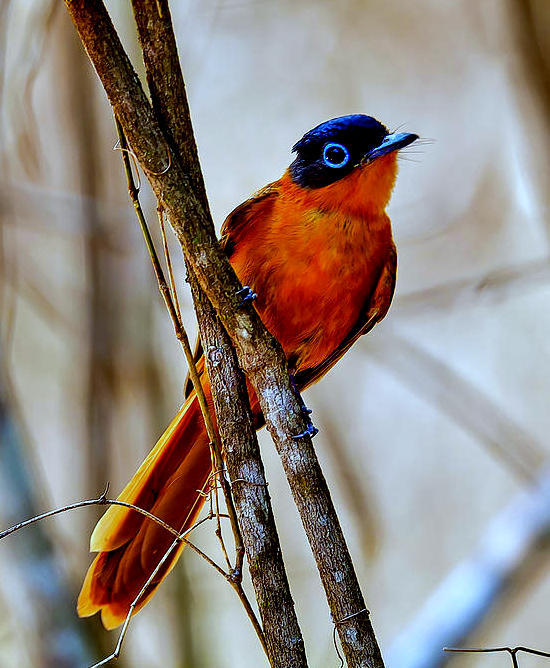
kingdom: Animalia
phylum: Chordata
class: Aves
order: Passeriformes
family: Monarchidae
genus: Terpsiphone
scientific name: Terpsiphone mutata
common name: Malagasy paradise flycatcher
